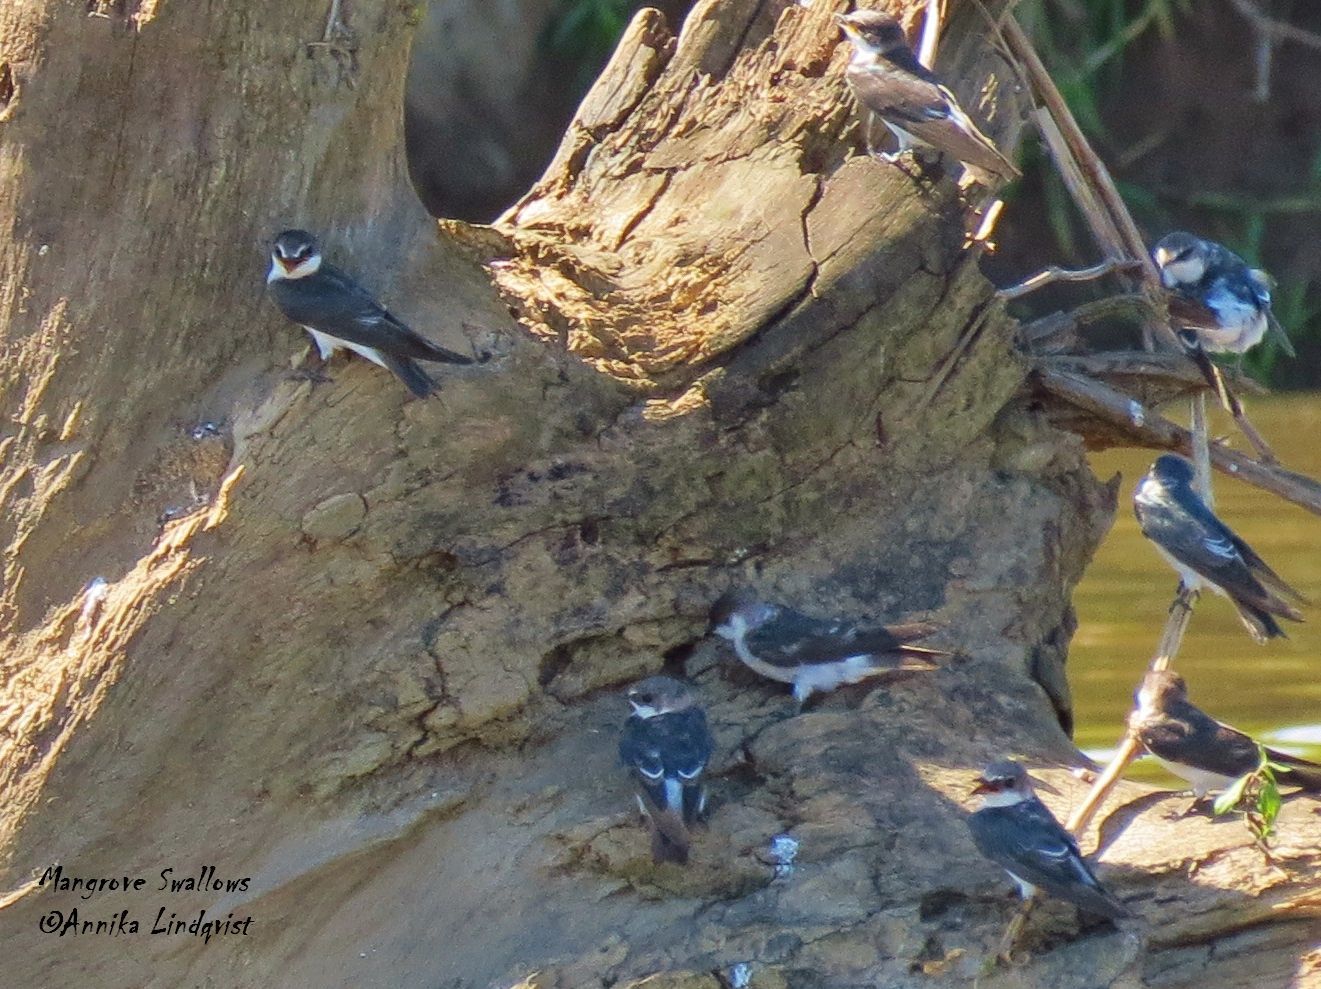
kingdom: Animalia
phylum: Chordata
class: Aves
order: Passeriformes
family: Hirundinidae
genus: Tachycineta
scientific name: Tachycineta albilinea
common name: Mangrove swallow
